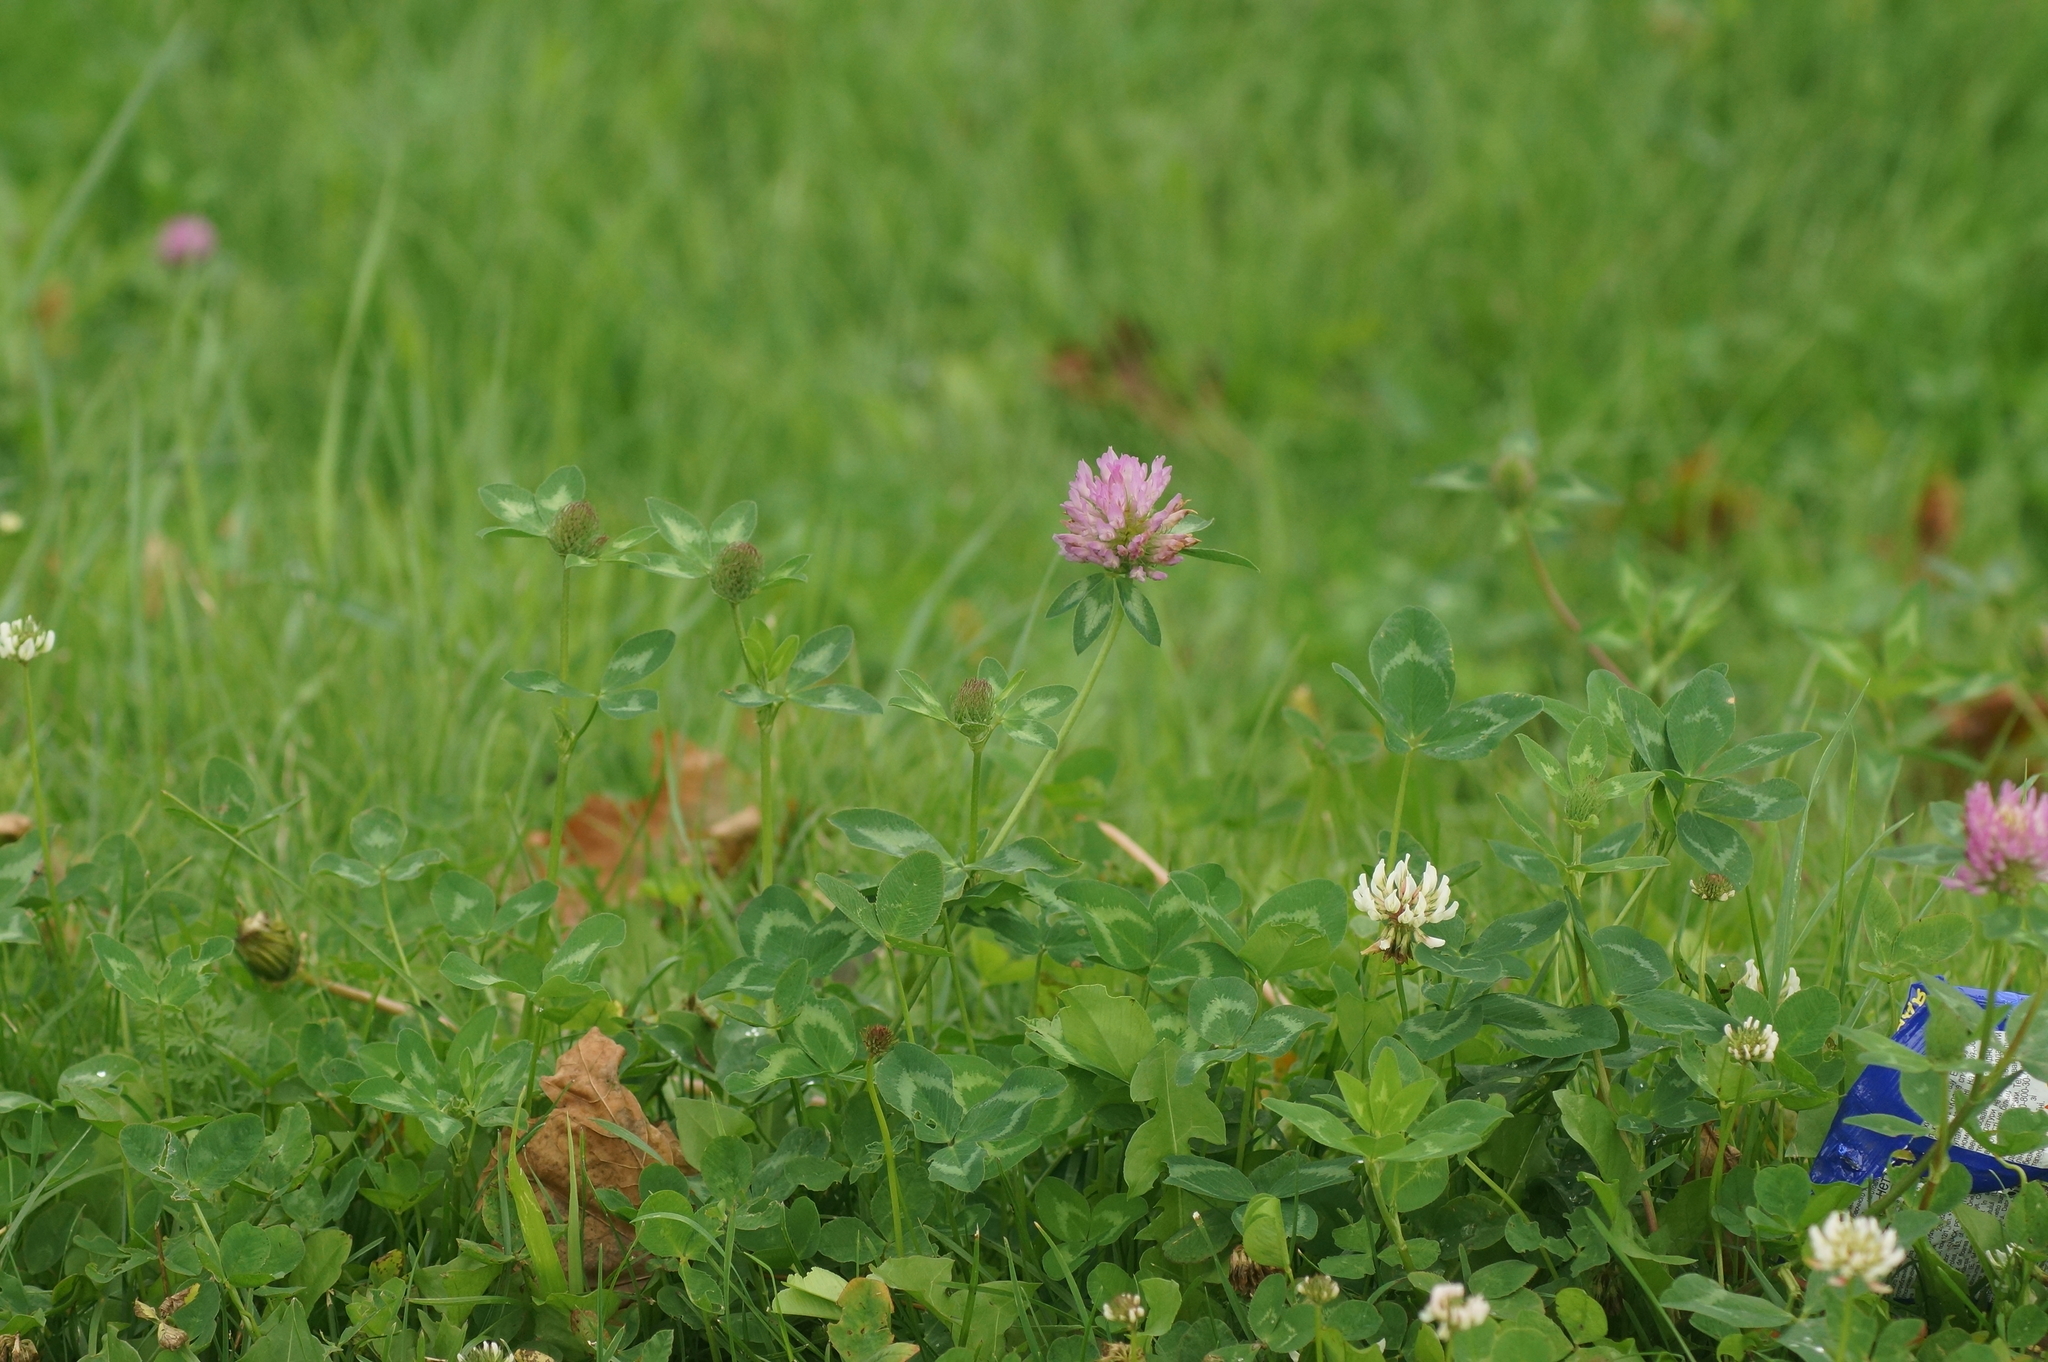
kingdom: Plantae
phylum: Tracheophyta
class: Magnoliopsida
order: Fabales
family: Fabaceae
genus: Trifolium
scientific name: Trifolium pratense
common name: Red clover
